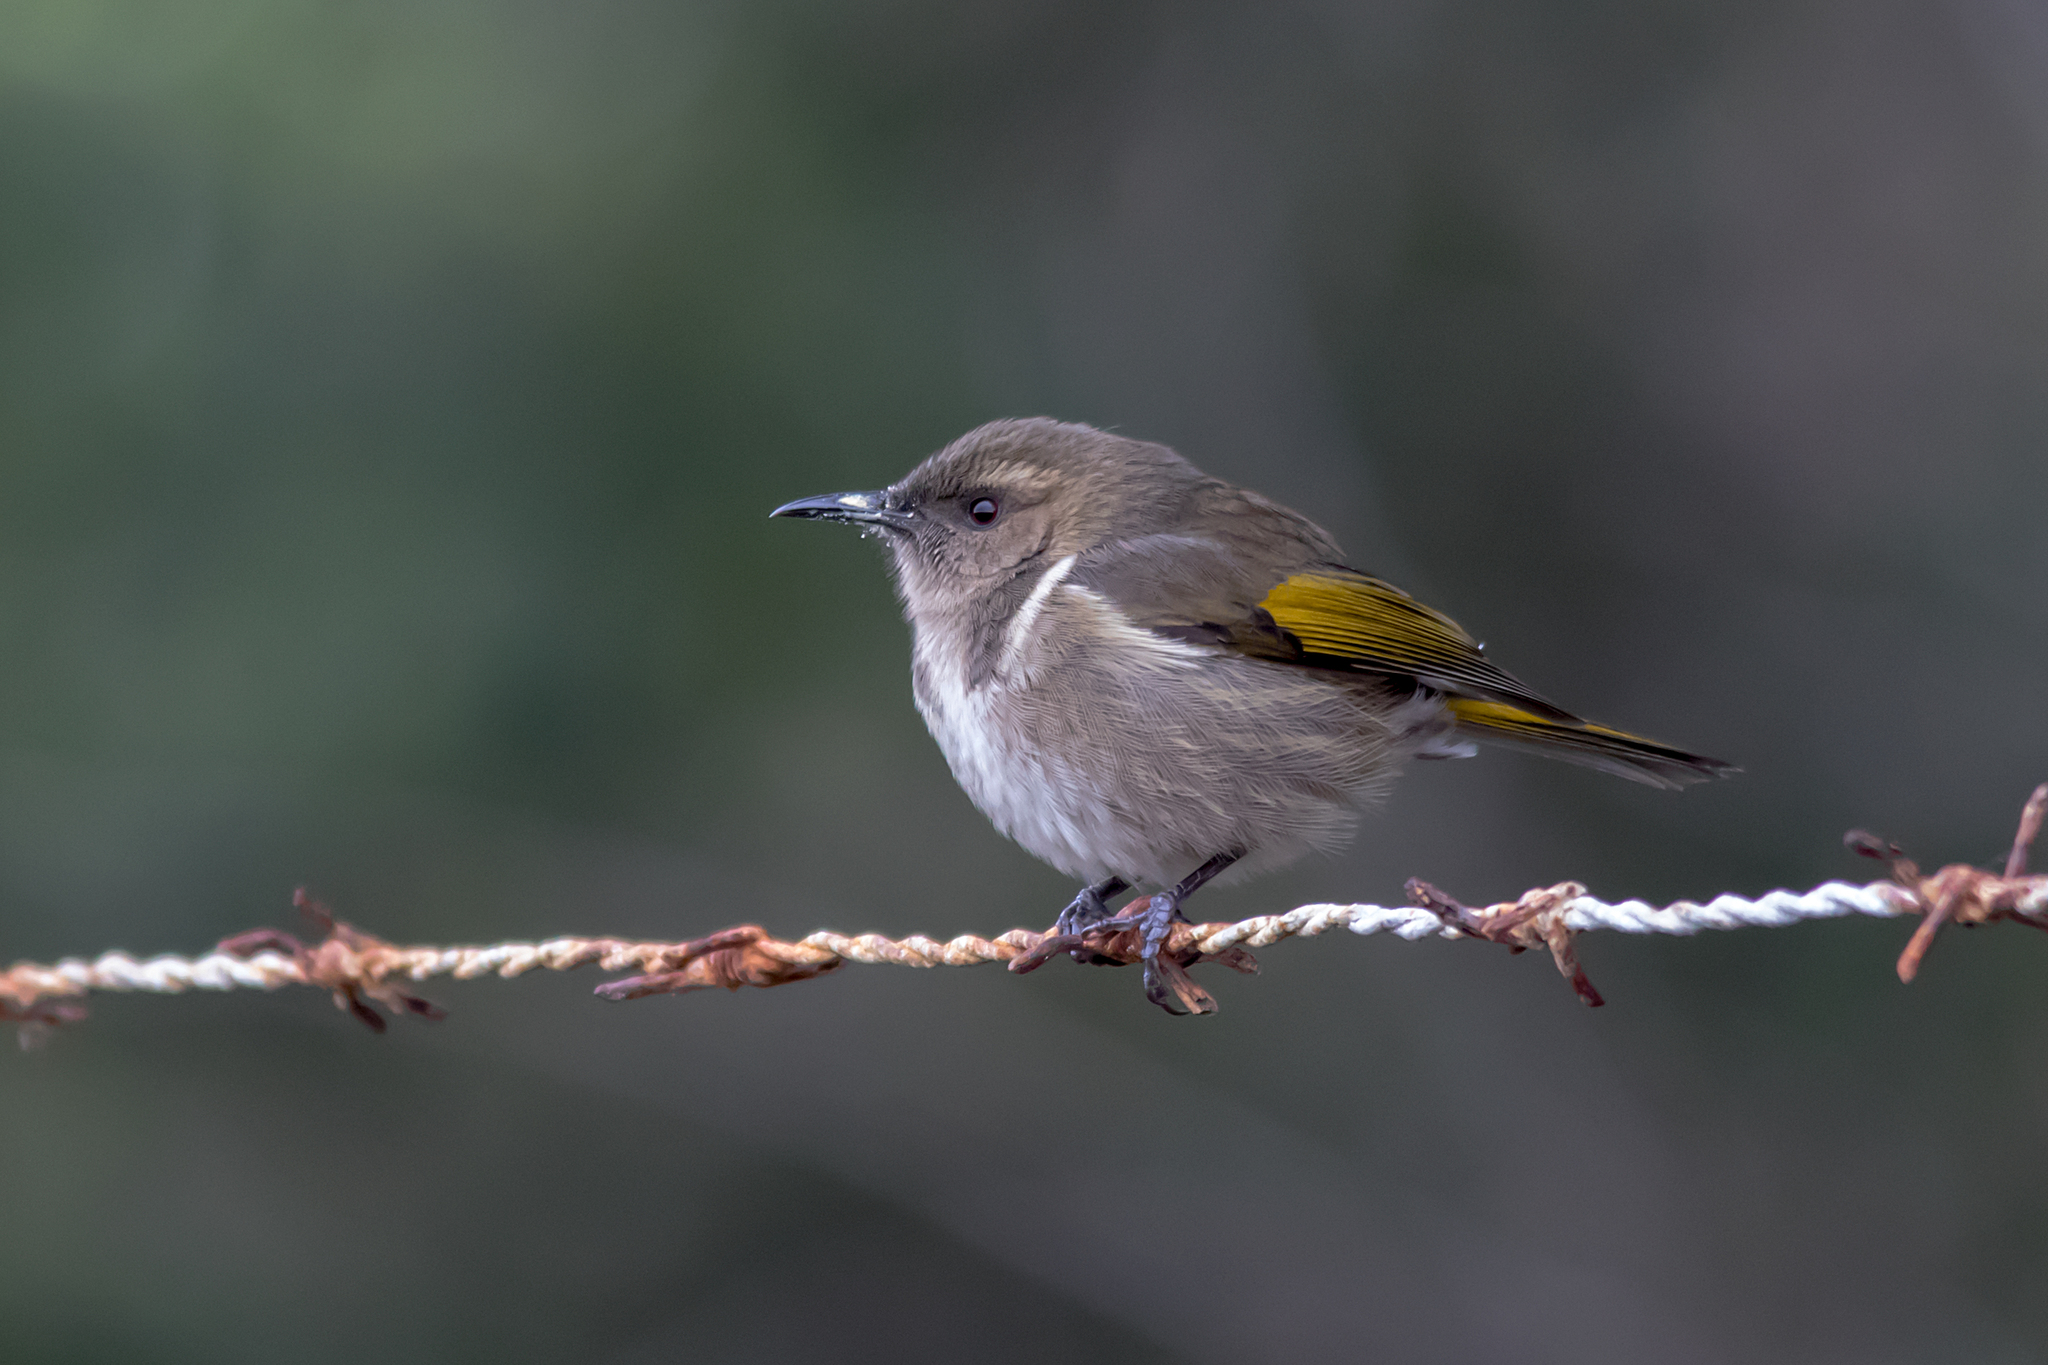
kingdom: Animalia
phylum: Chordata
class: Aves
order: Passeriformes
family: Meliphagidae
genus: Phylidonyris
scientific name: Phylidonyris pyrrhopterus
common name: Crescent honeyeater
